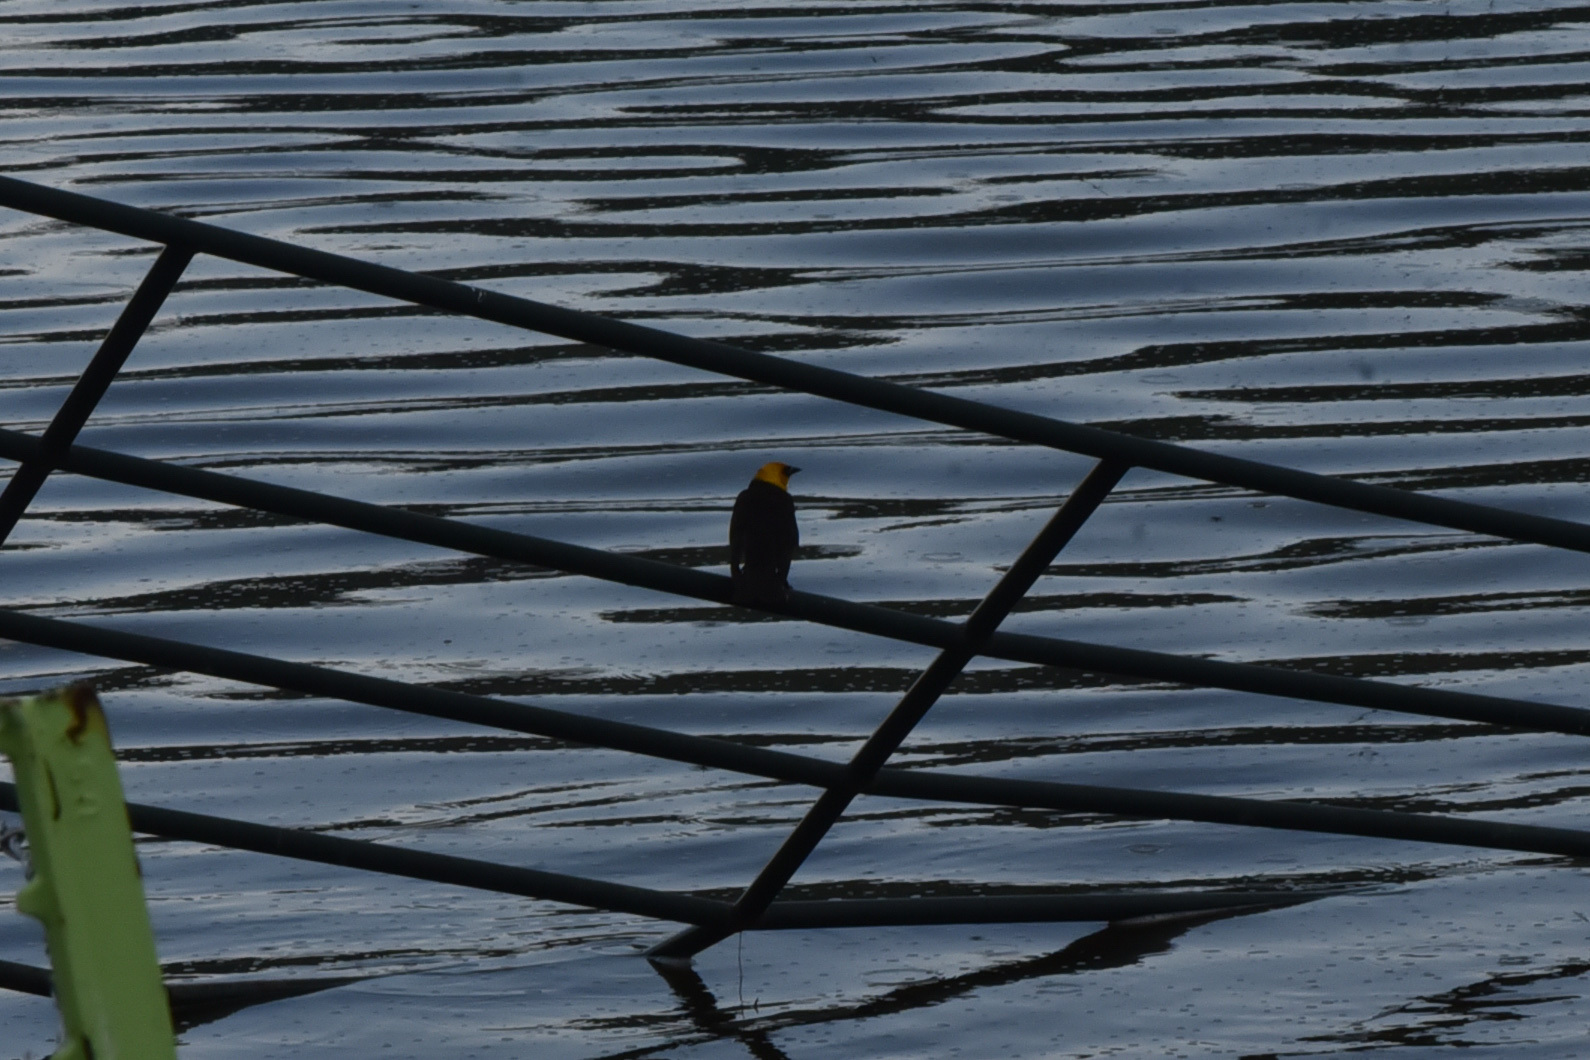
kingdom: Animalia
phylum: Chordata
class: Aves
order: Passeriformes
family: Icteridae
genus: Xanthocephalus
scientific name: Xanthocephalus xanthocephalus
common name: Yellow-headed blackbird
